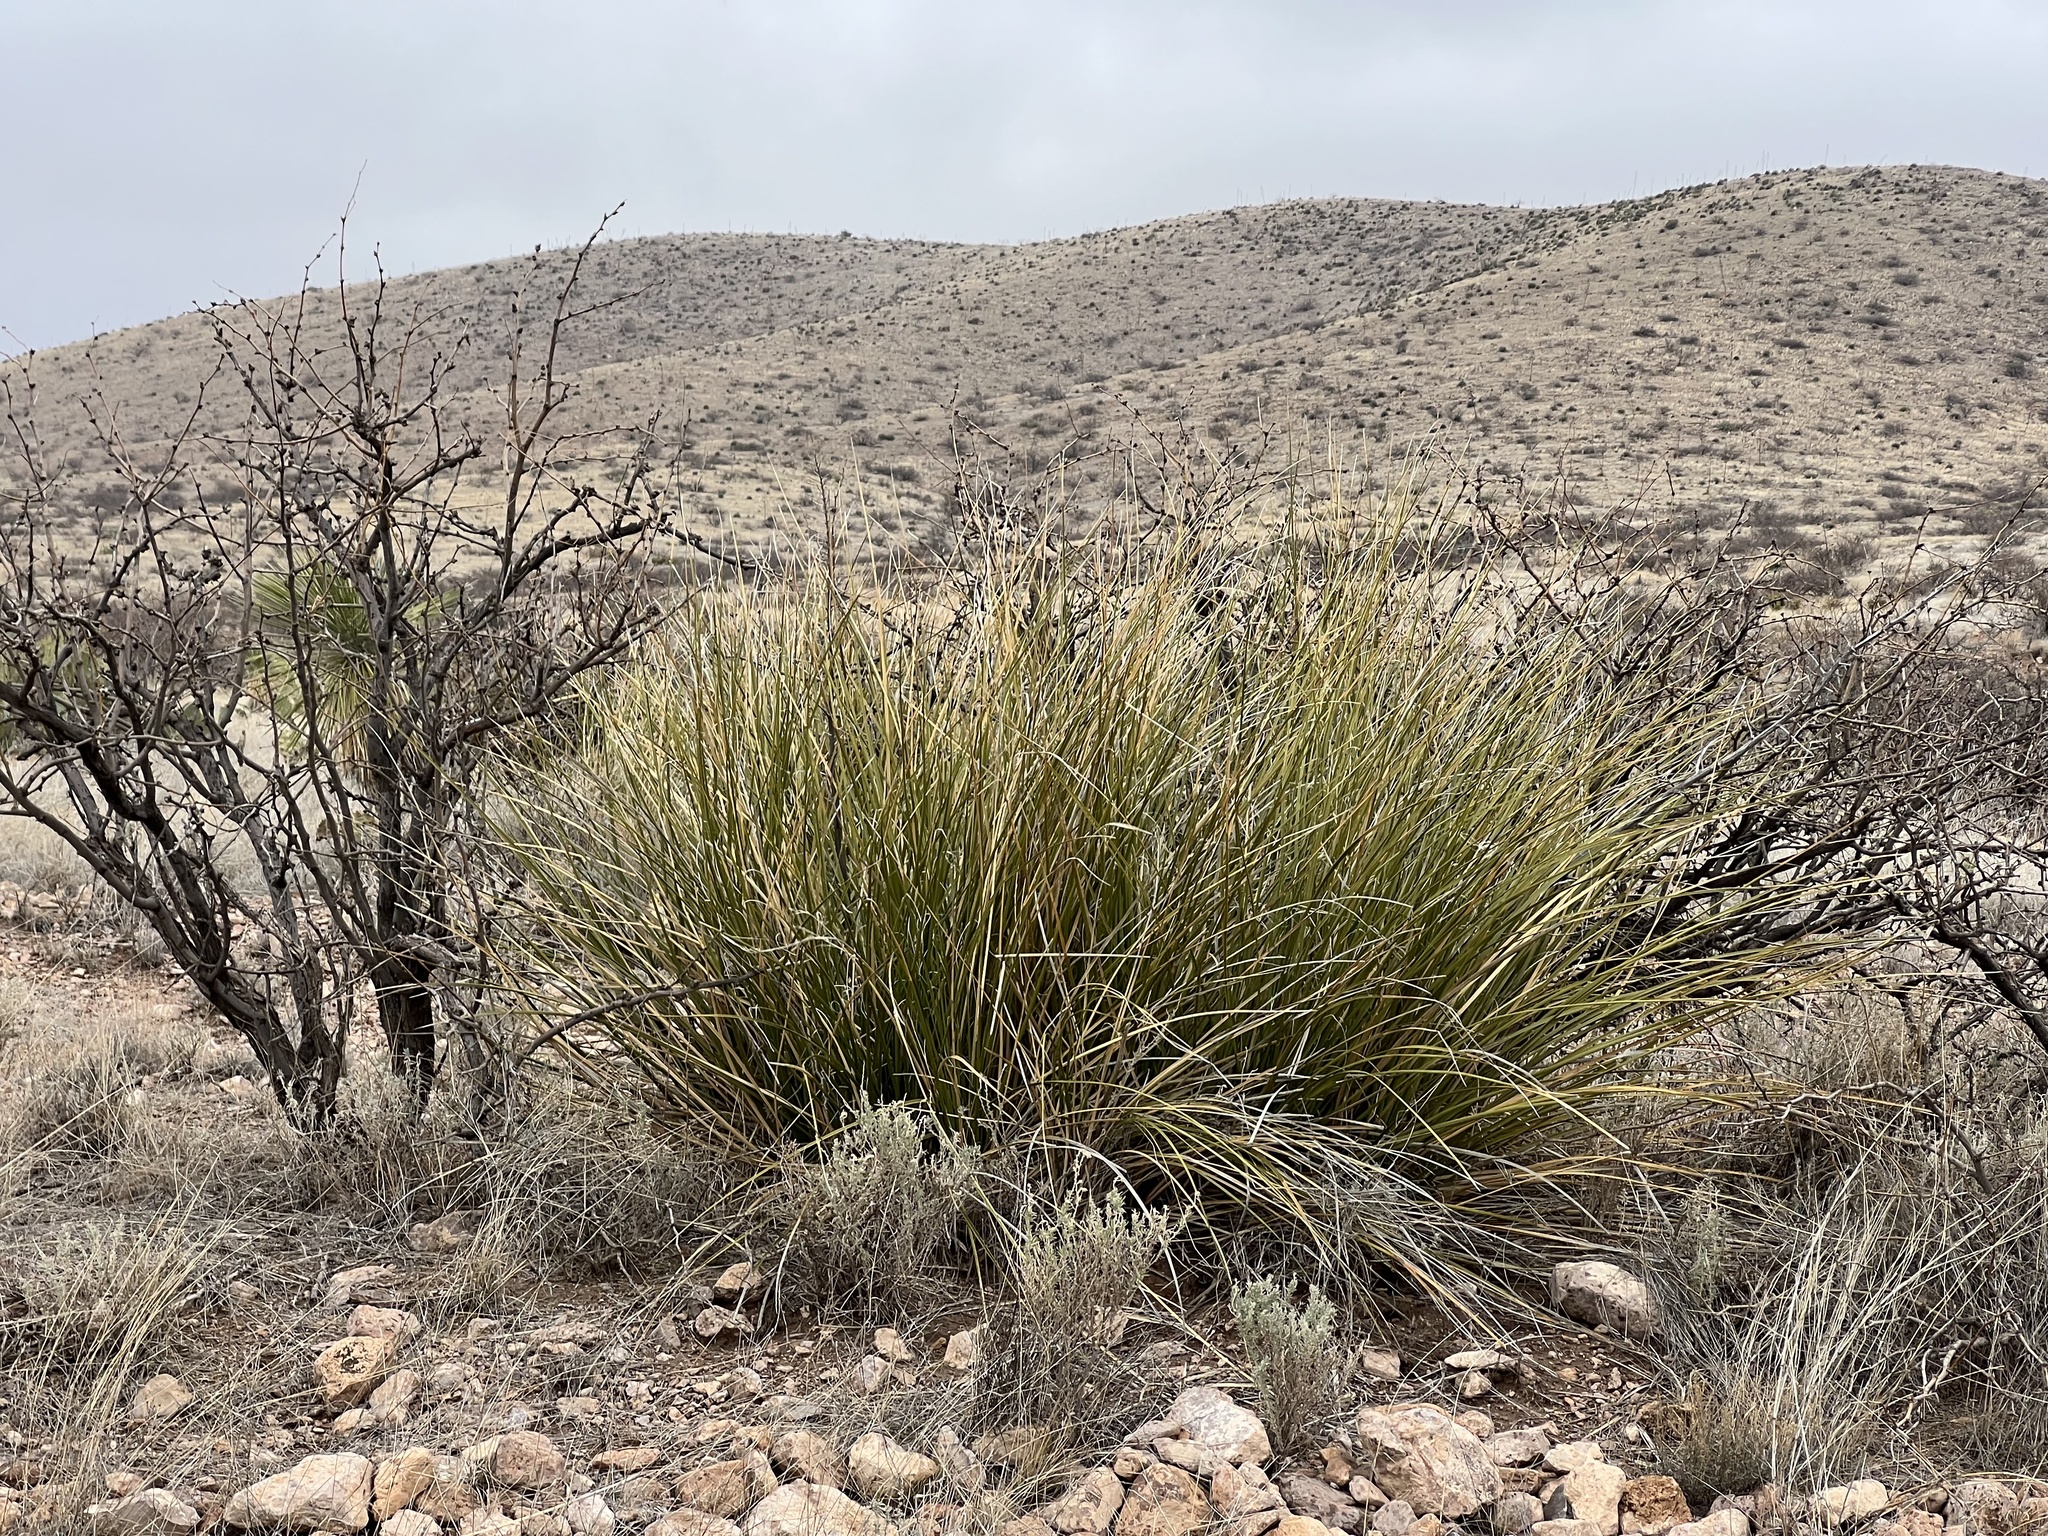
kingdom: Plantae
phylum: Tracheophyta
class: Liliopsida
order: Asparagales
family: Asparagaceae
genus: Nolina
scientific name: Nolina microcarpa
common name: Bear-grass
